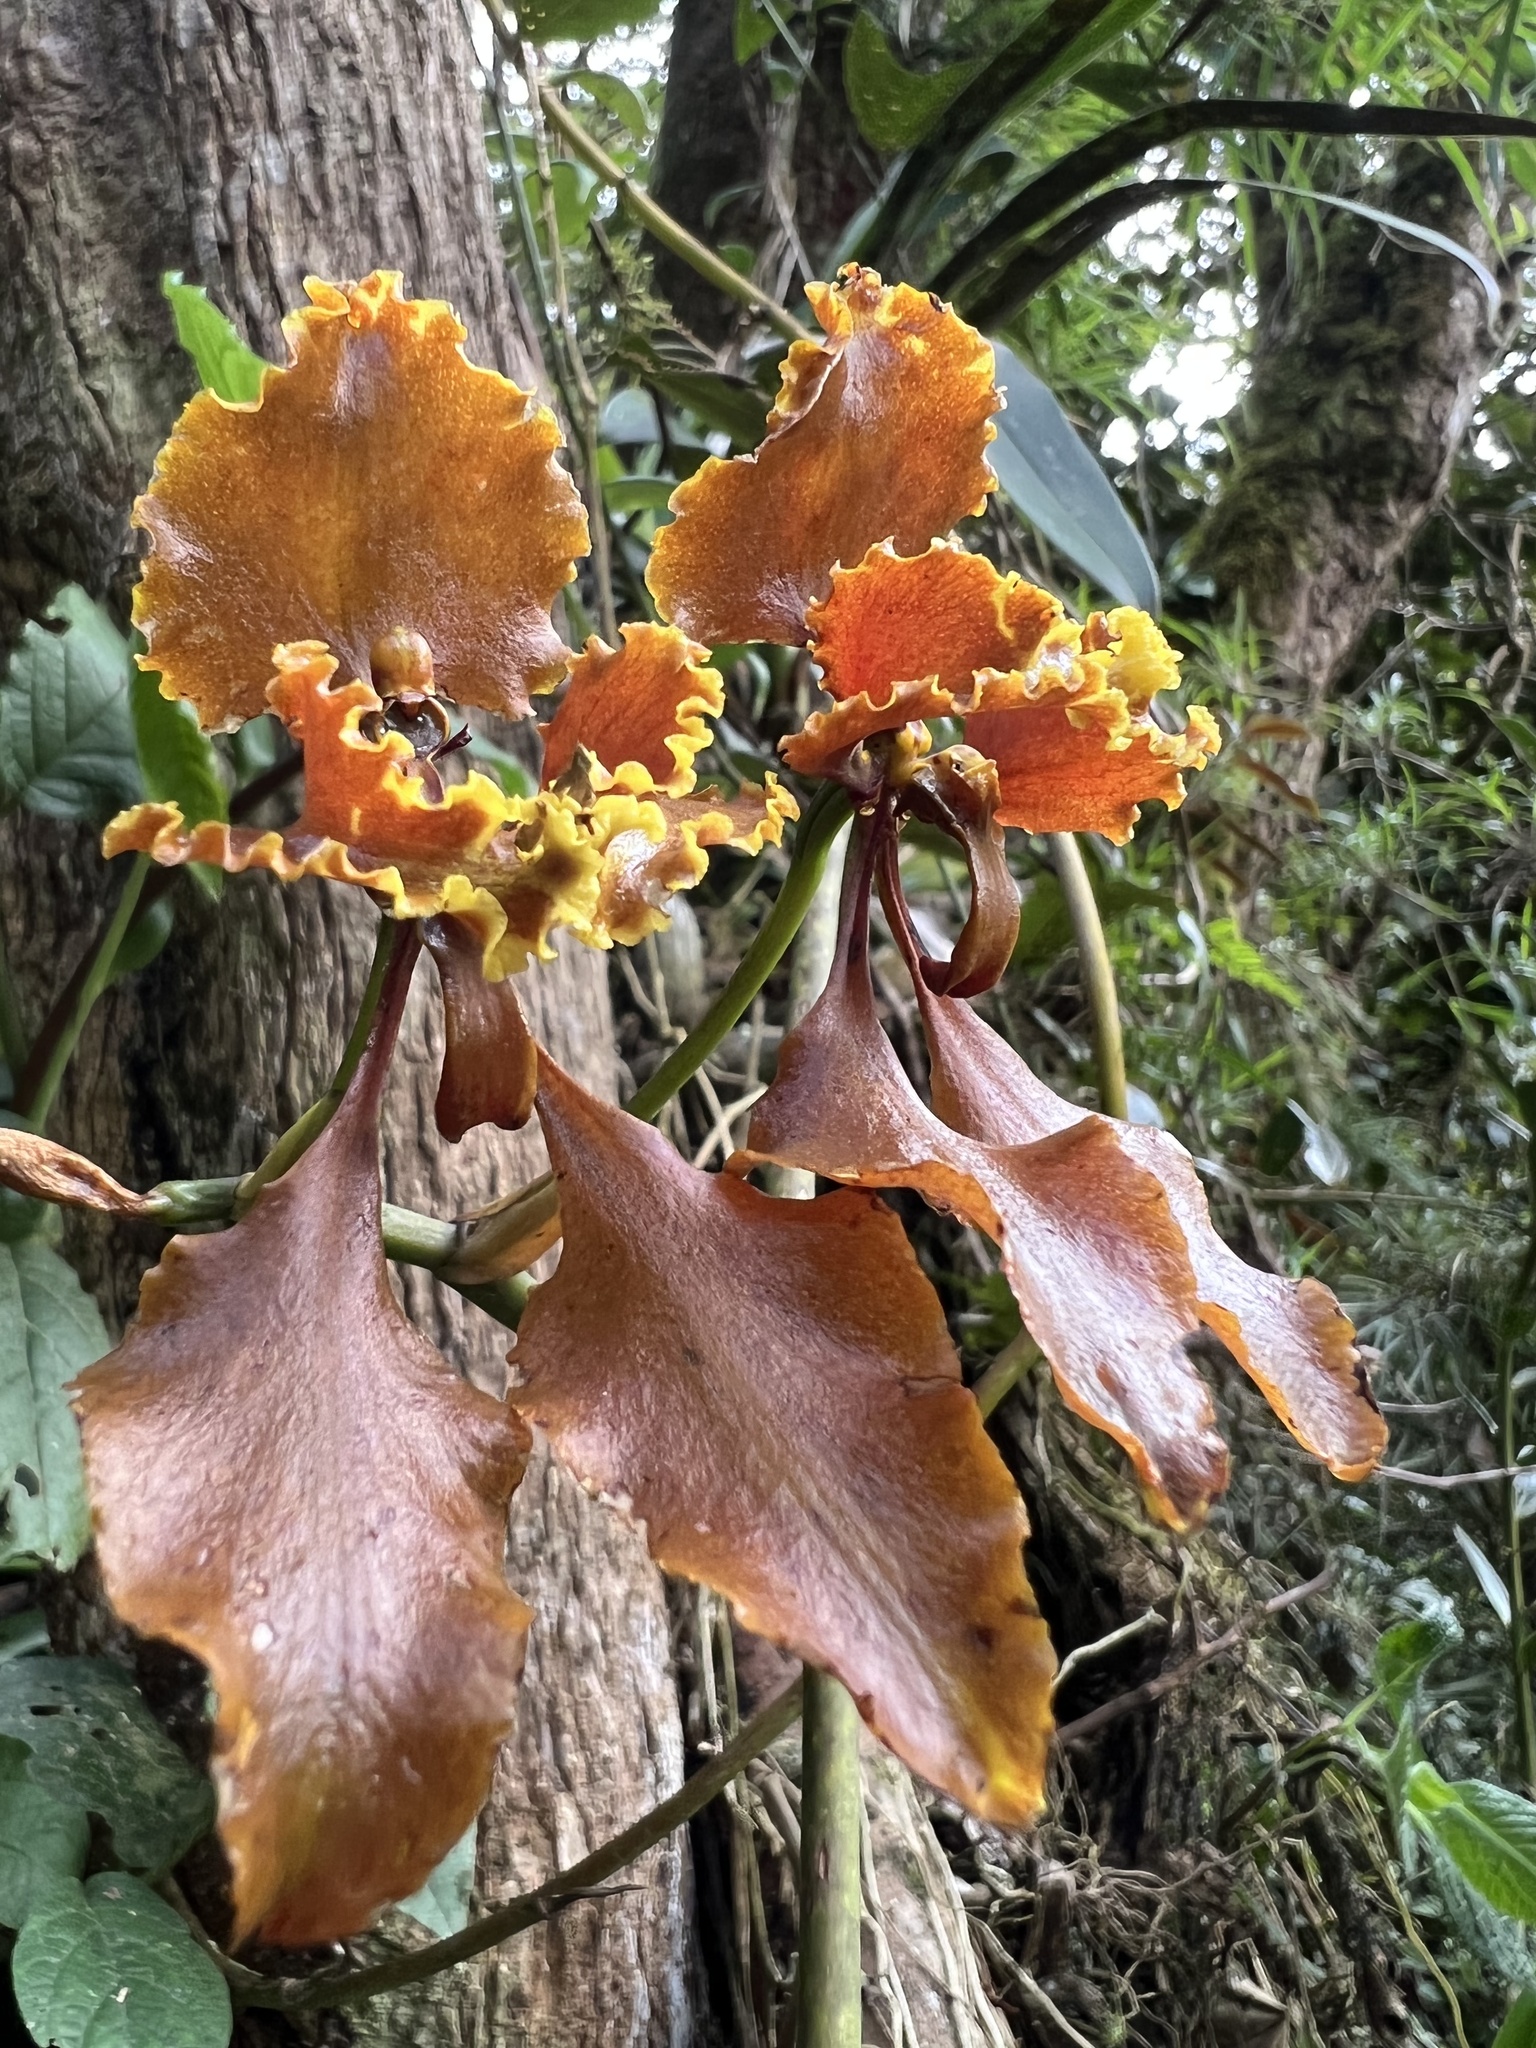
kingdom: Plantae
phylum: Tracheophyta
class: Liliopsida
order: Asparagales
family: Orchidaceae
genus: Cyrtochilum
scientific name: Cyrtochilum serratum
